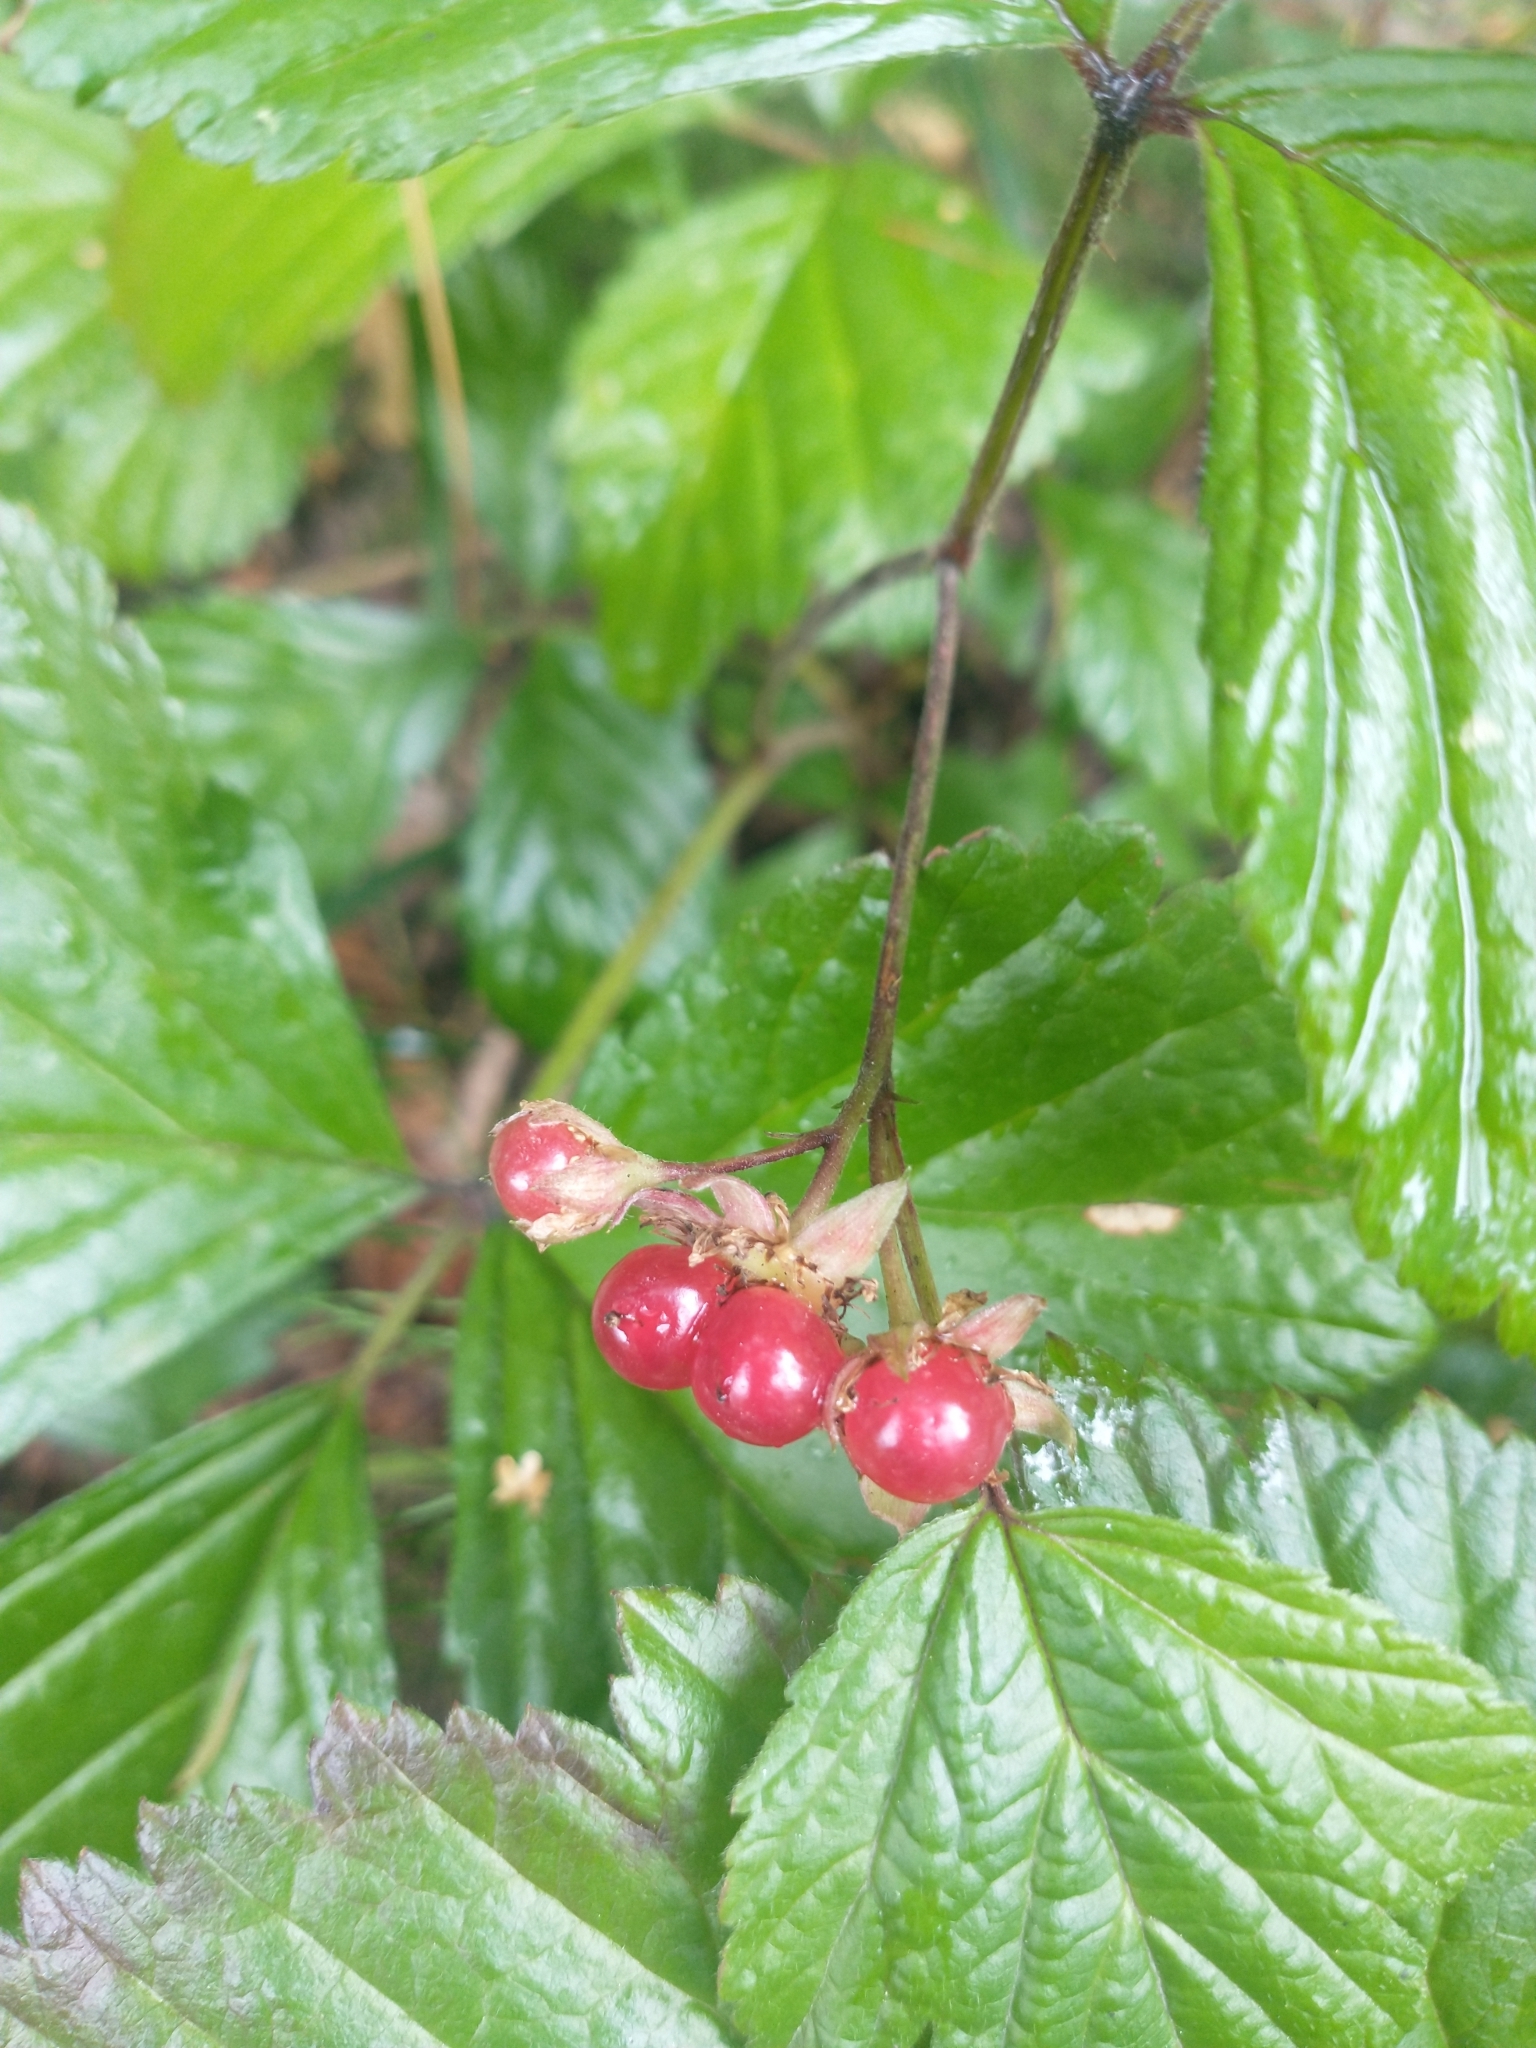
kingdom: Plantae
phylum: Tracheophyta
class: Magnoliopsida
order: Rosales
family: Rosaceae
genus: Rubus
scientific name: Rubus saxatilis
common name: Stone bramble
